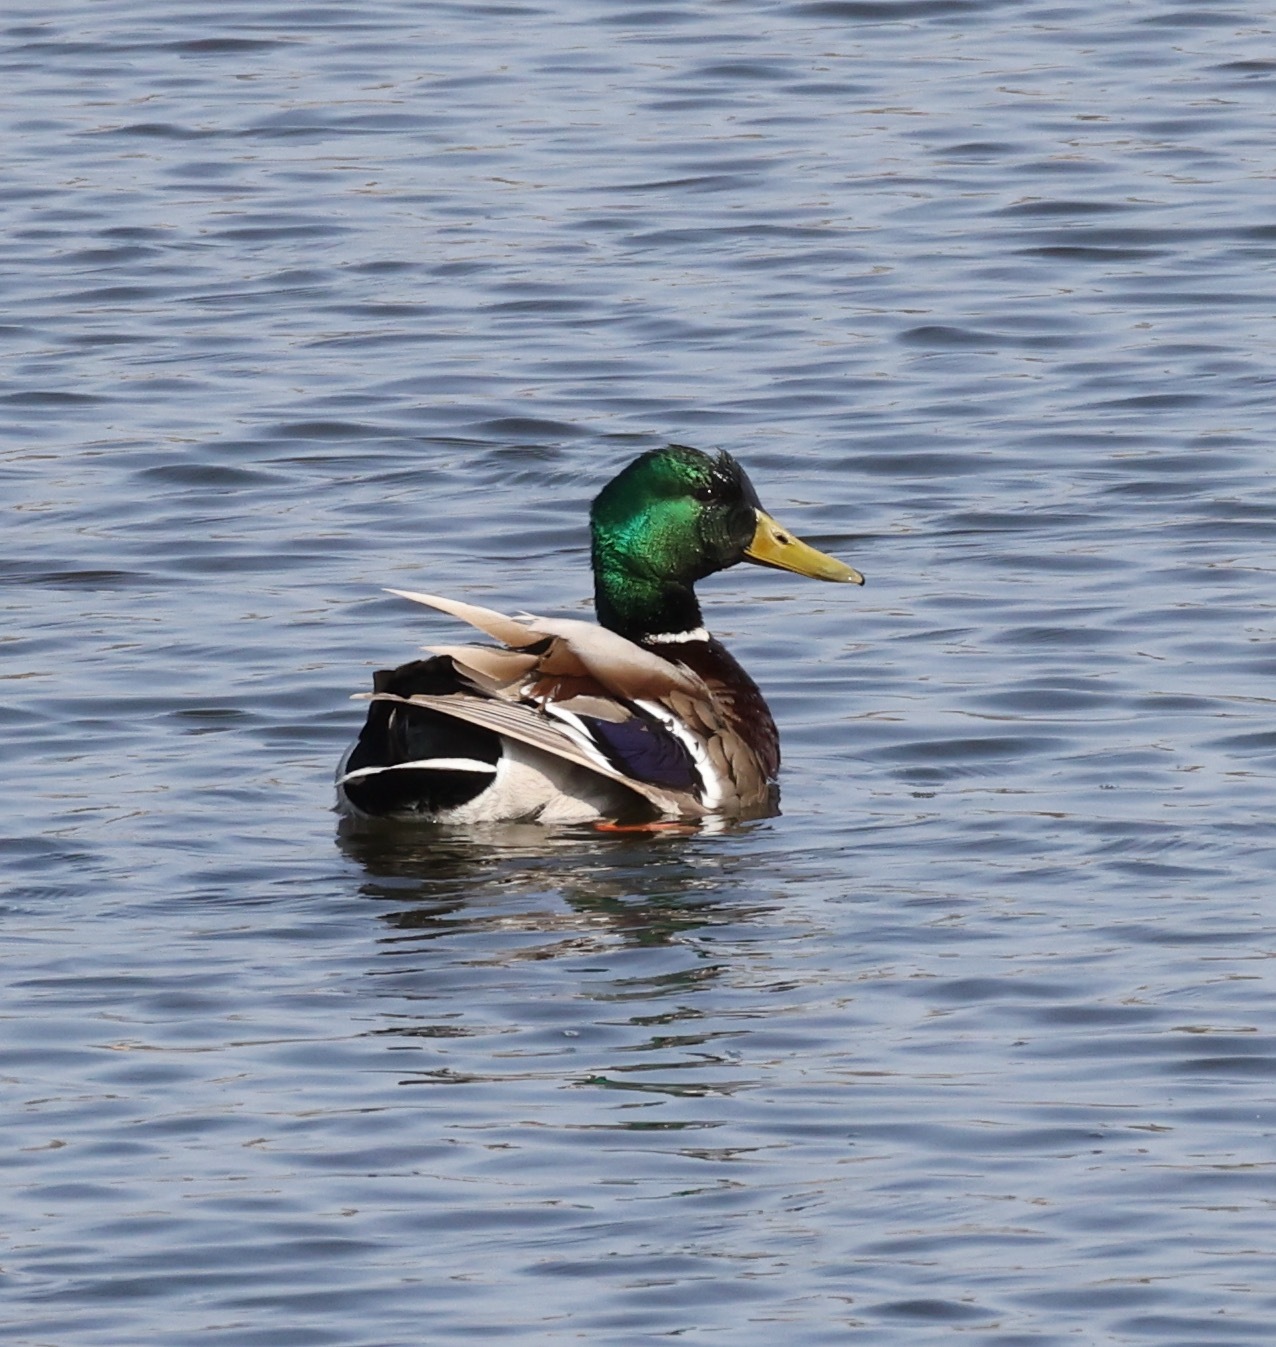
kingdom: Animalia
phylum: Chordata
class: Aves
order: Anseriformes
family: Anatidae
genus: Anas
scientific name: Anas platyrhynchos
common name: Mallard
